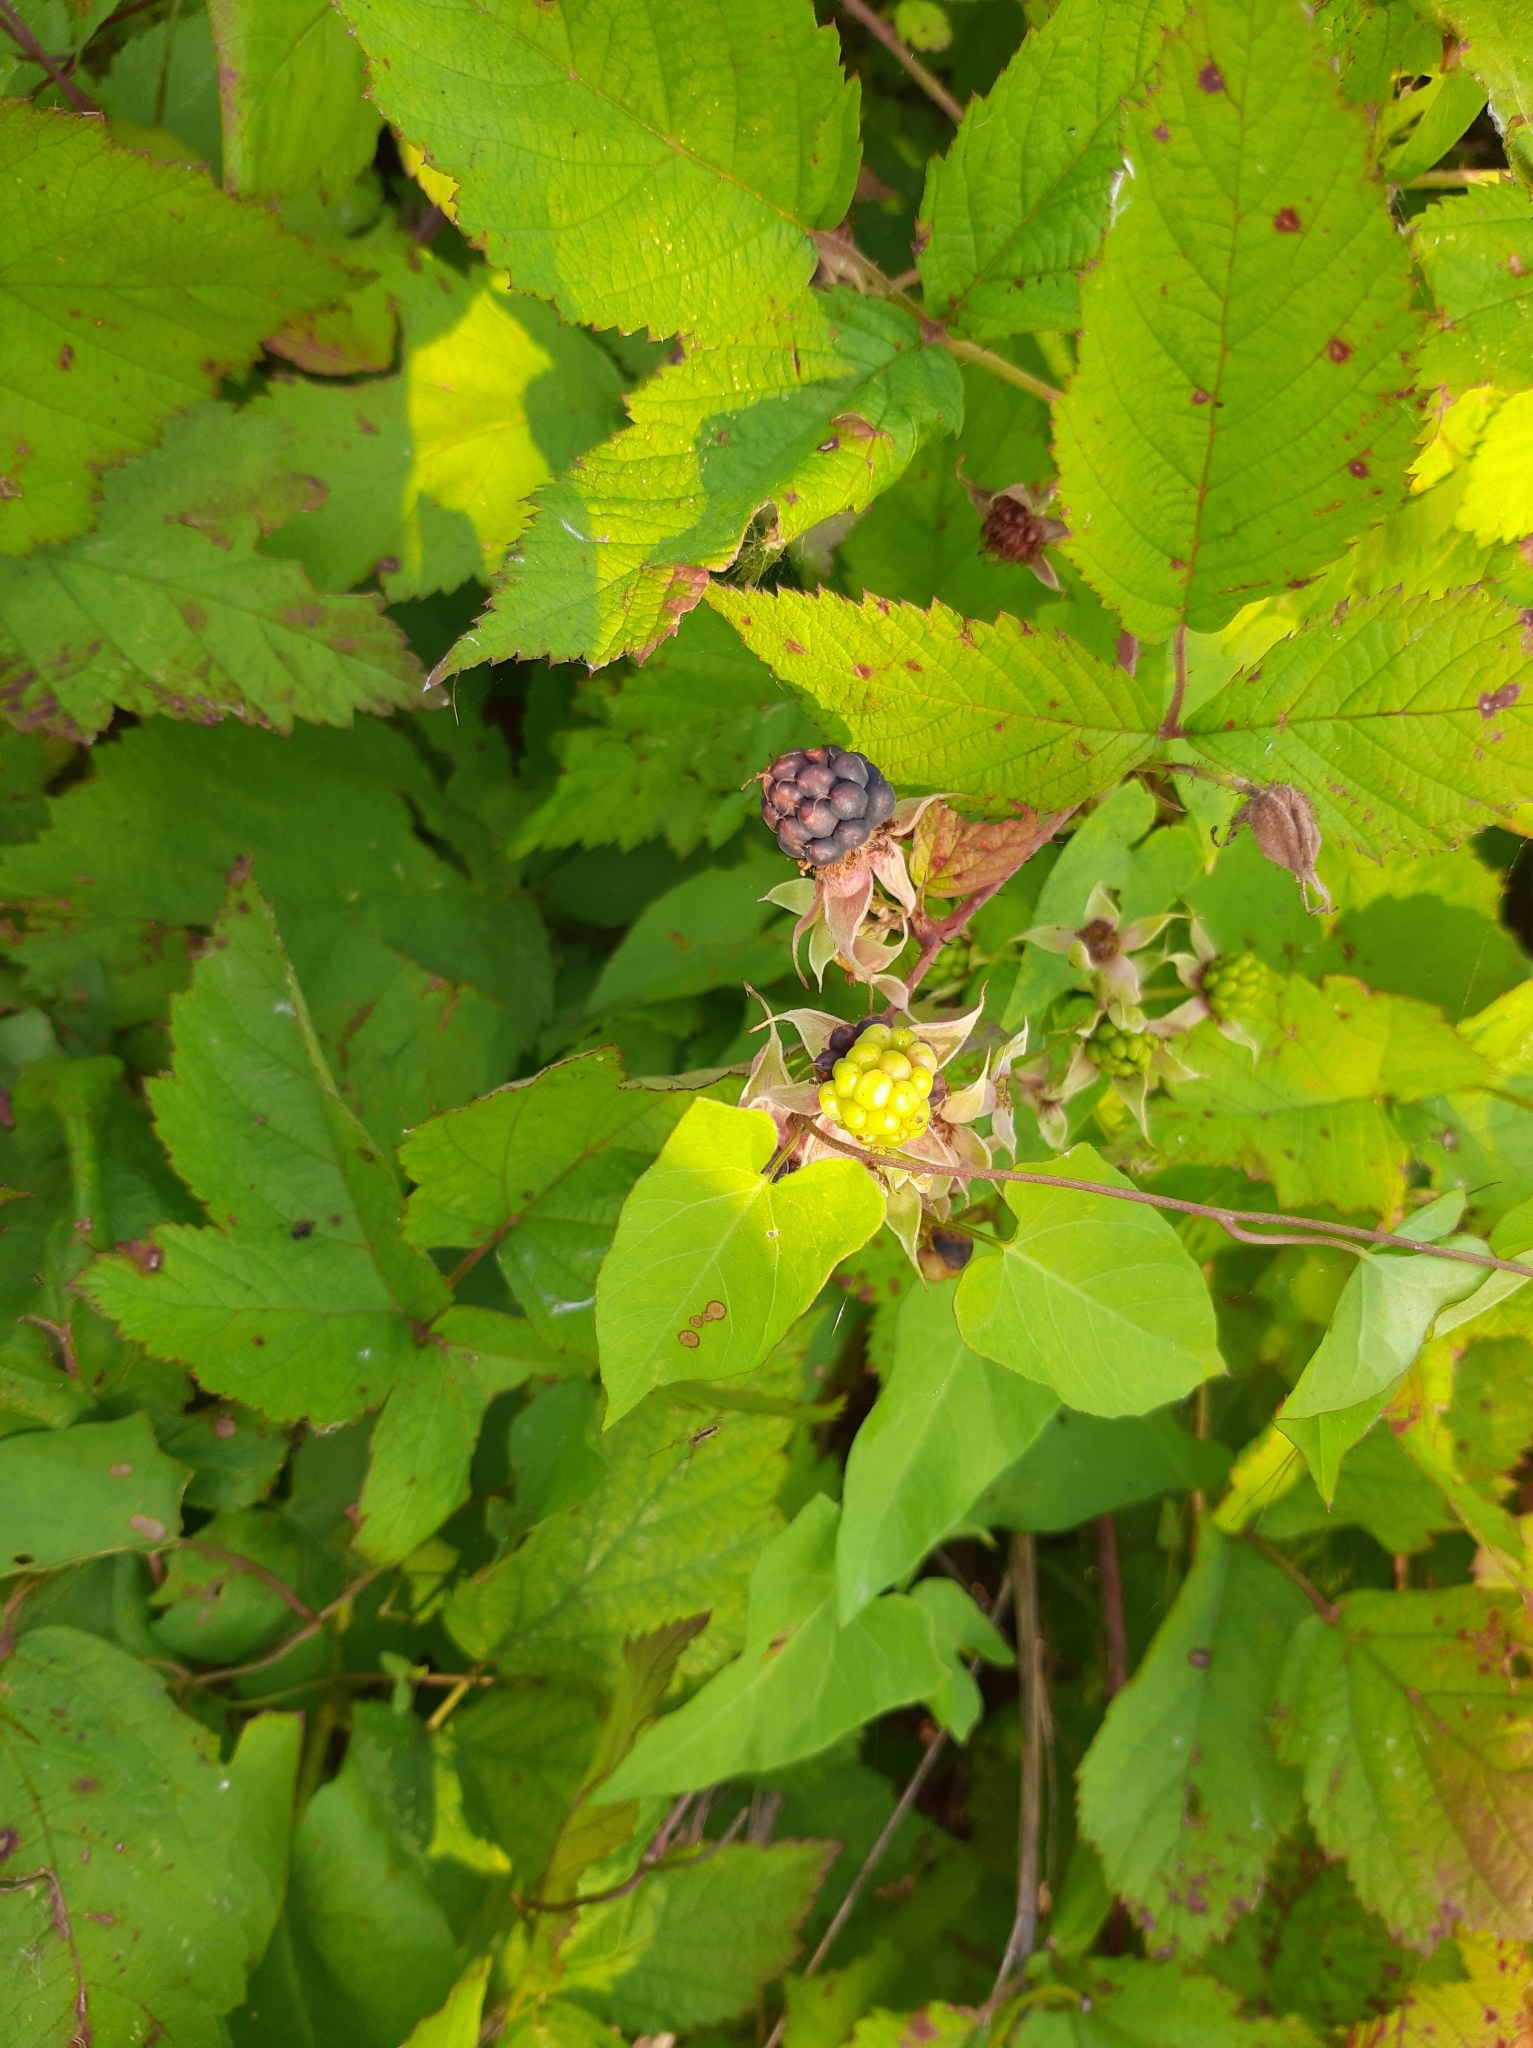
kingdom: Plantae
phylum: Tracheophyta
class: Magnoliopsida
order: Rosales
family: Rosaceae
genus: Rubus
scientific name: Rubus caesius
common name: Dewberry
